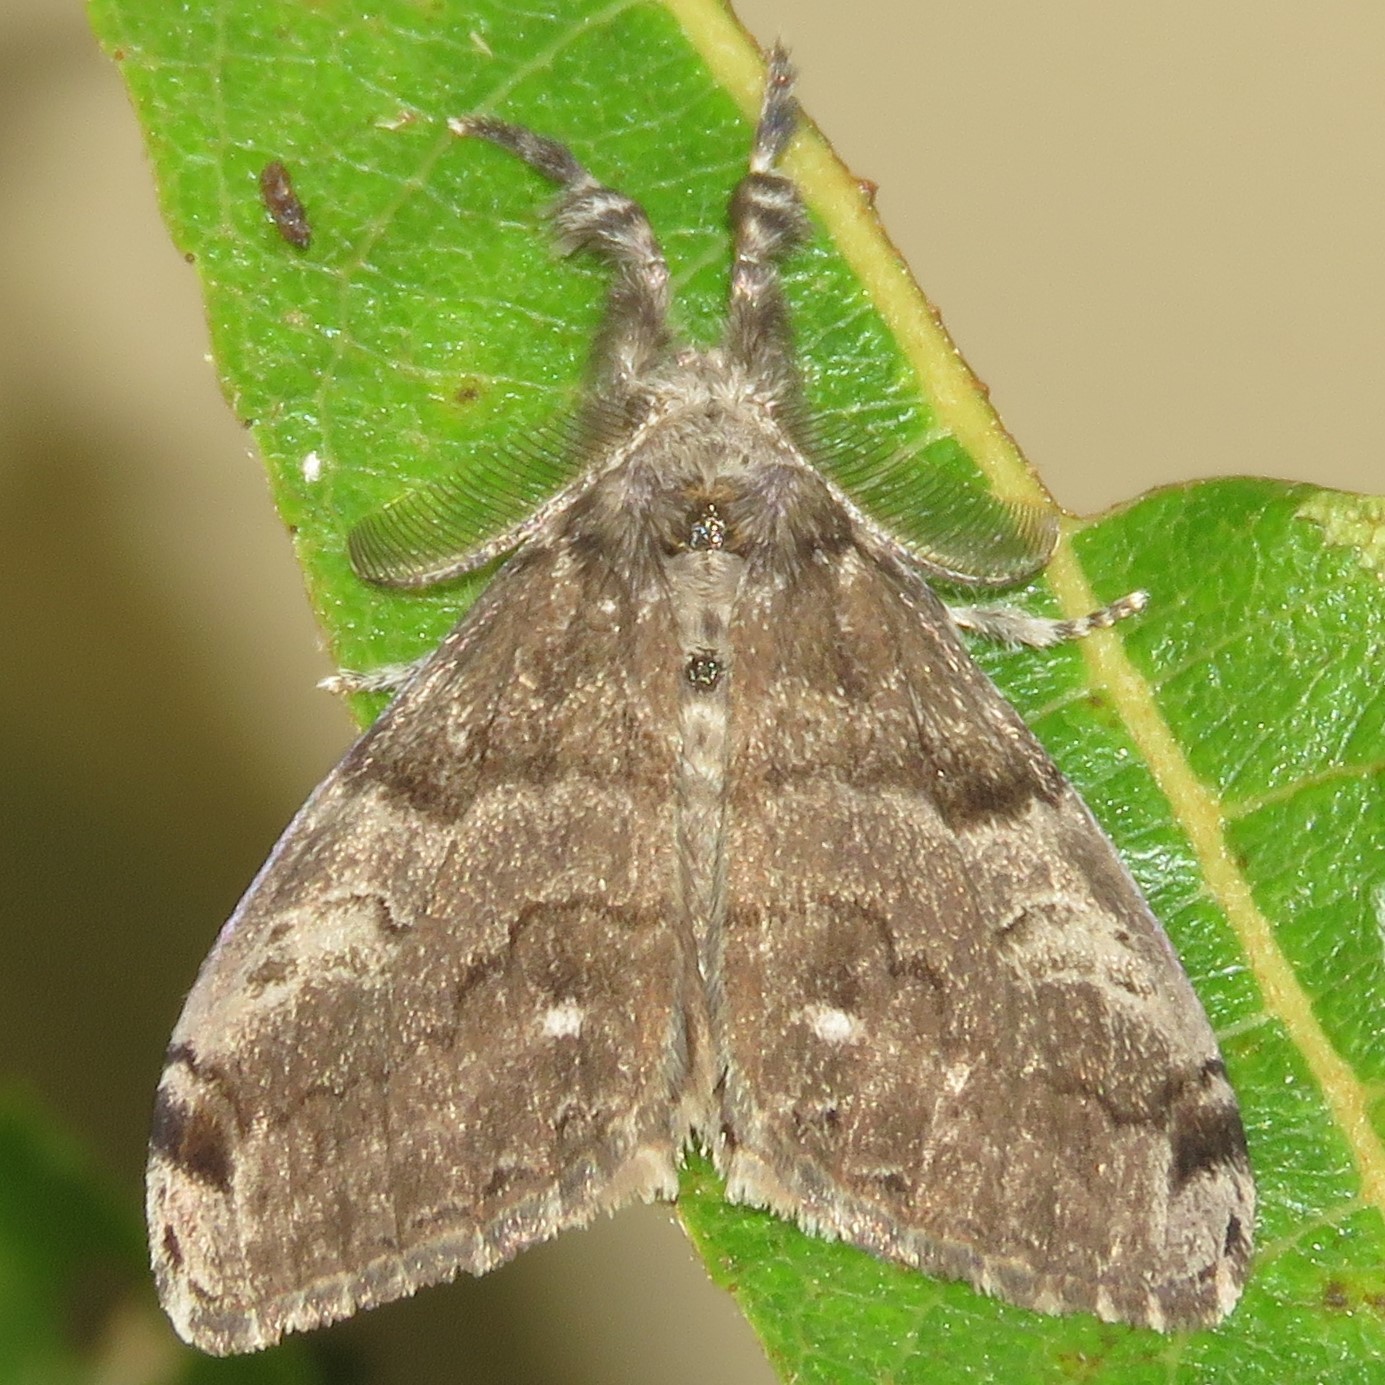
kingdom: Animalia
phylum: Arthropoda
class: Insecta
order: Lepidoptera
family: Erebidae
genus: Orgyia
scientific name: Orgyia leucostigma
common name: White-marked tussock moth
